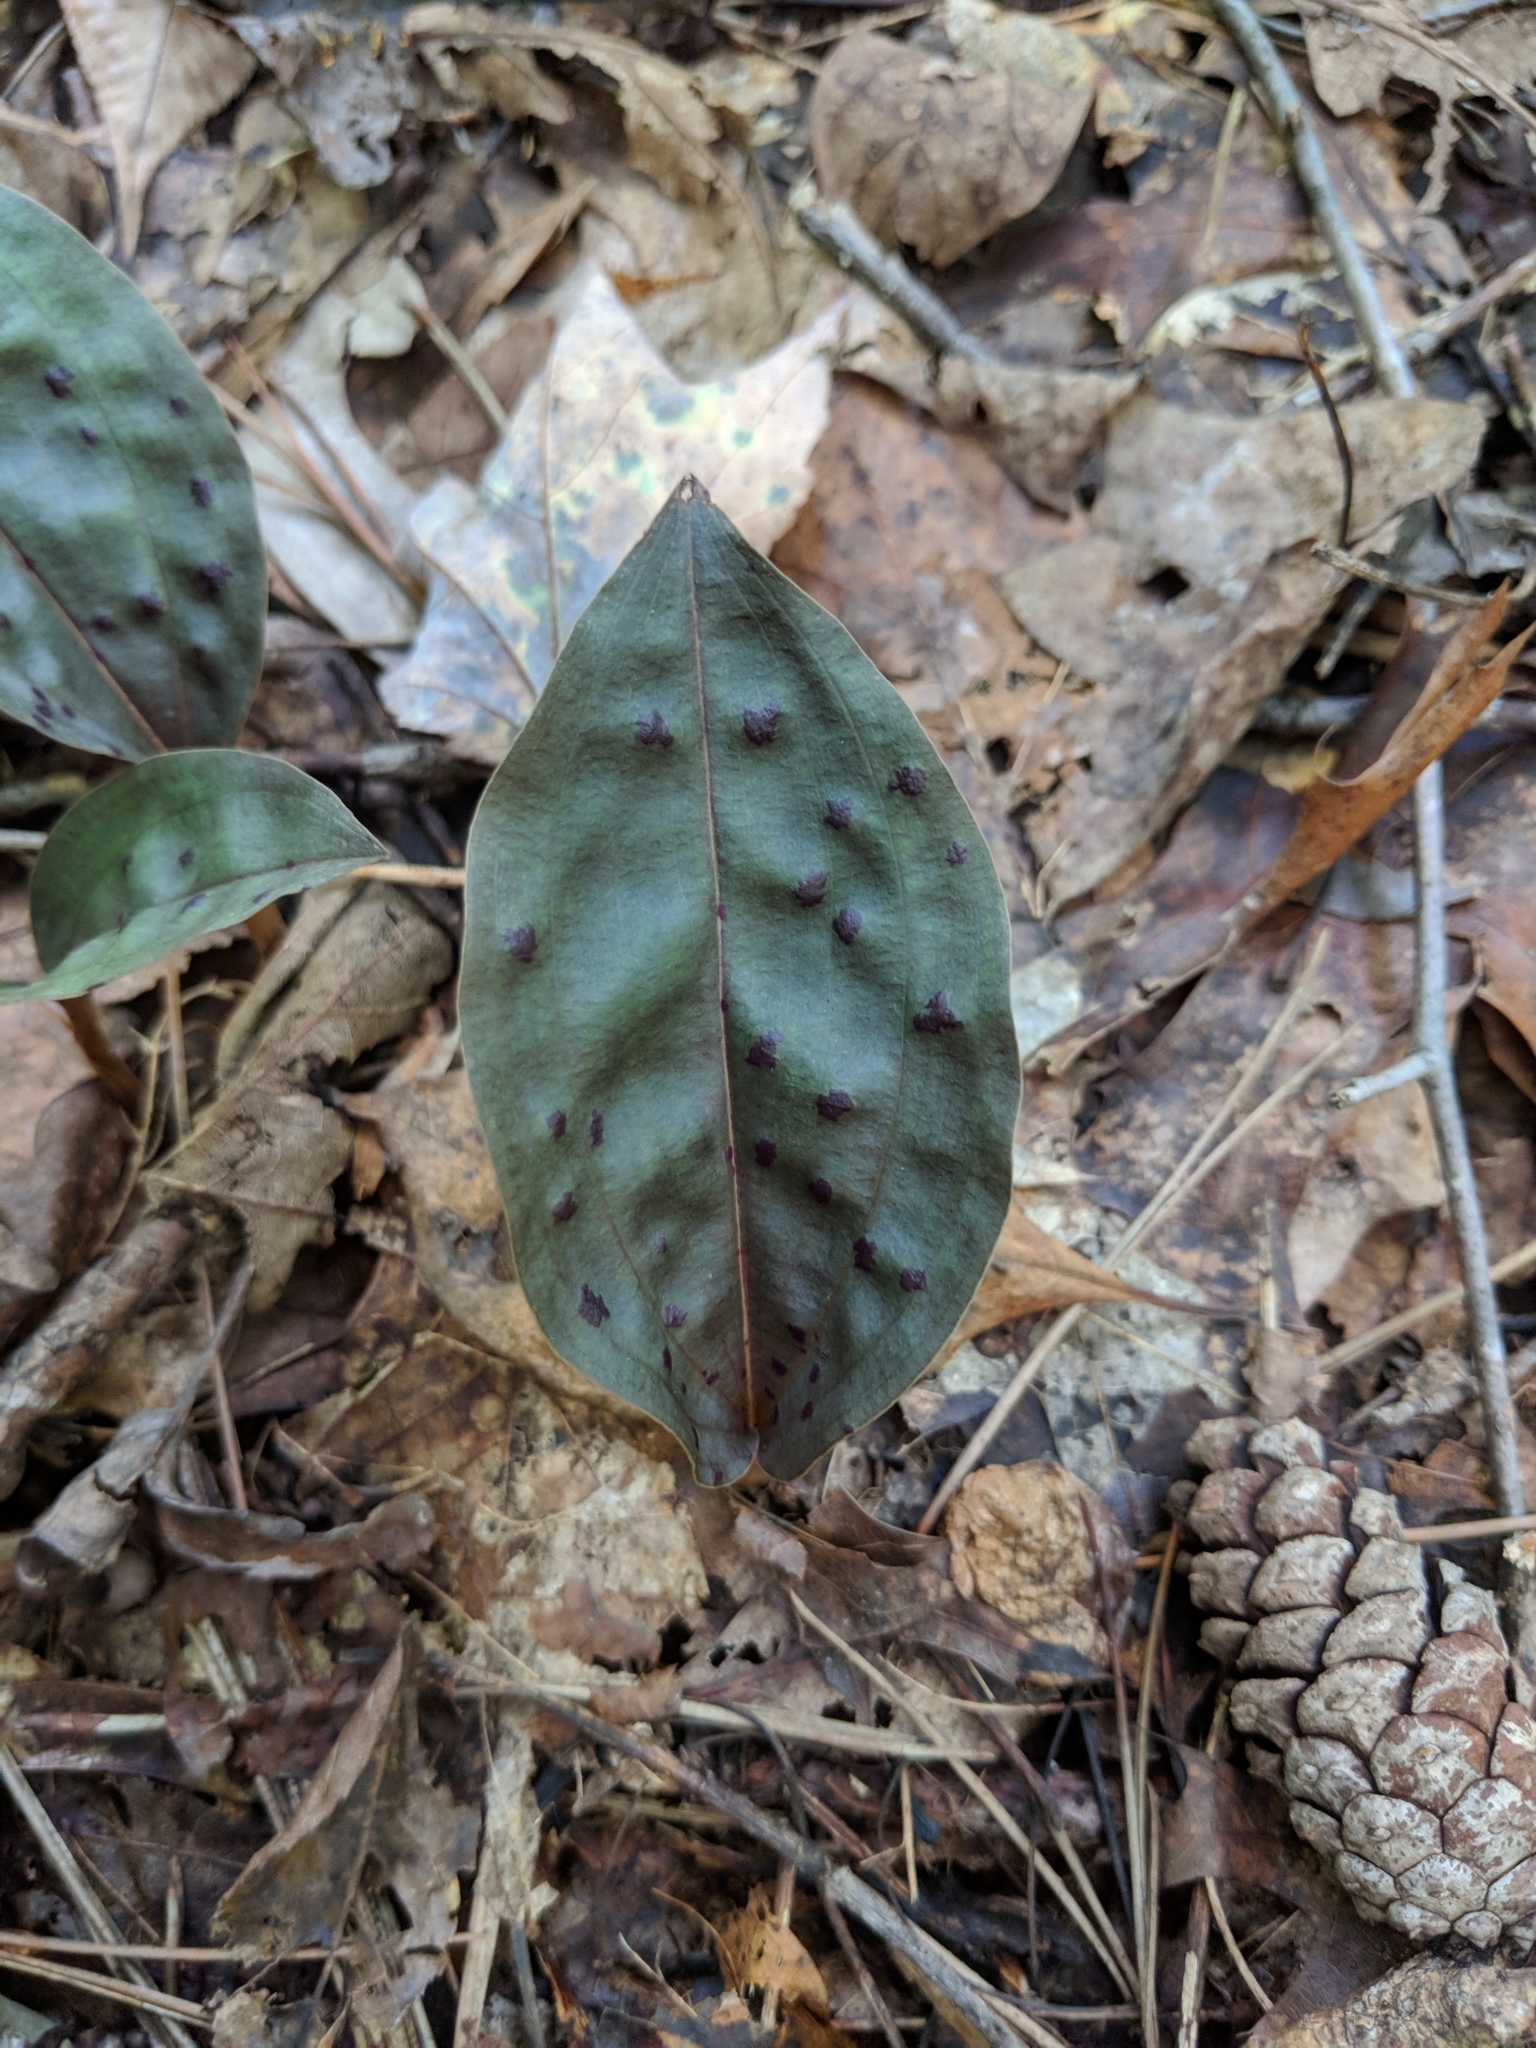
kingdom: Plantae
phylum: Tracheophyta
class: Liliopsida
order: Asparagales
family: Orchidaceae
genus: Tipularia
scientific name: Tipularia discolor
